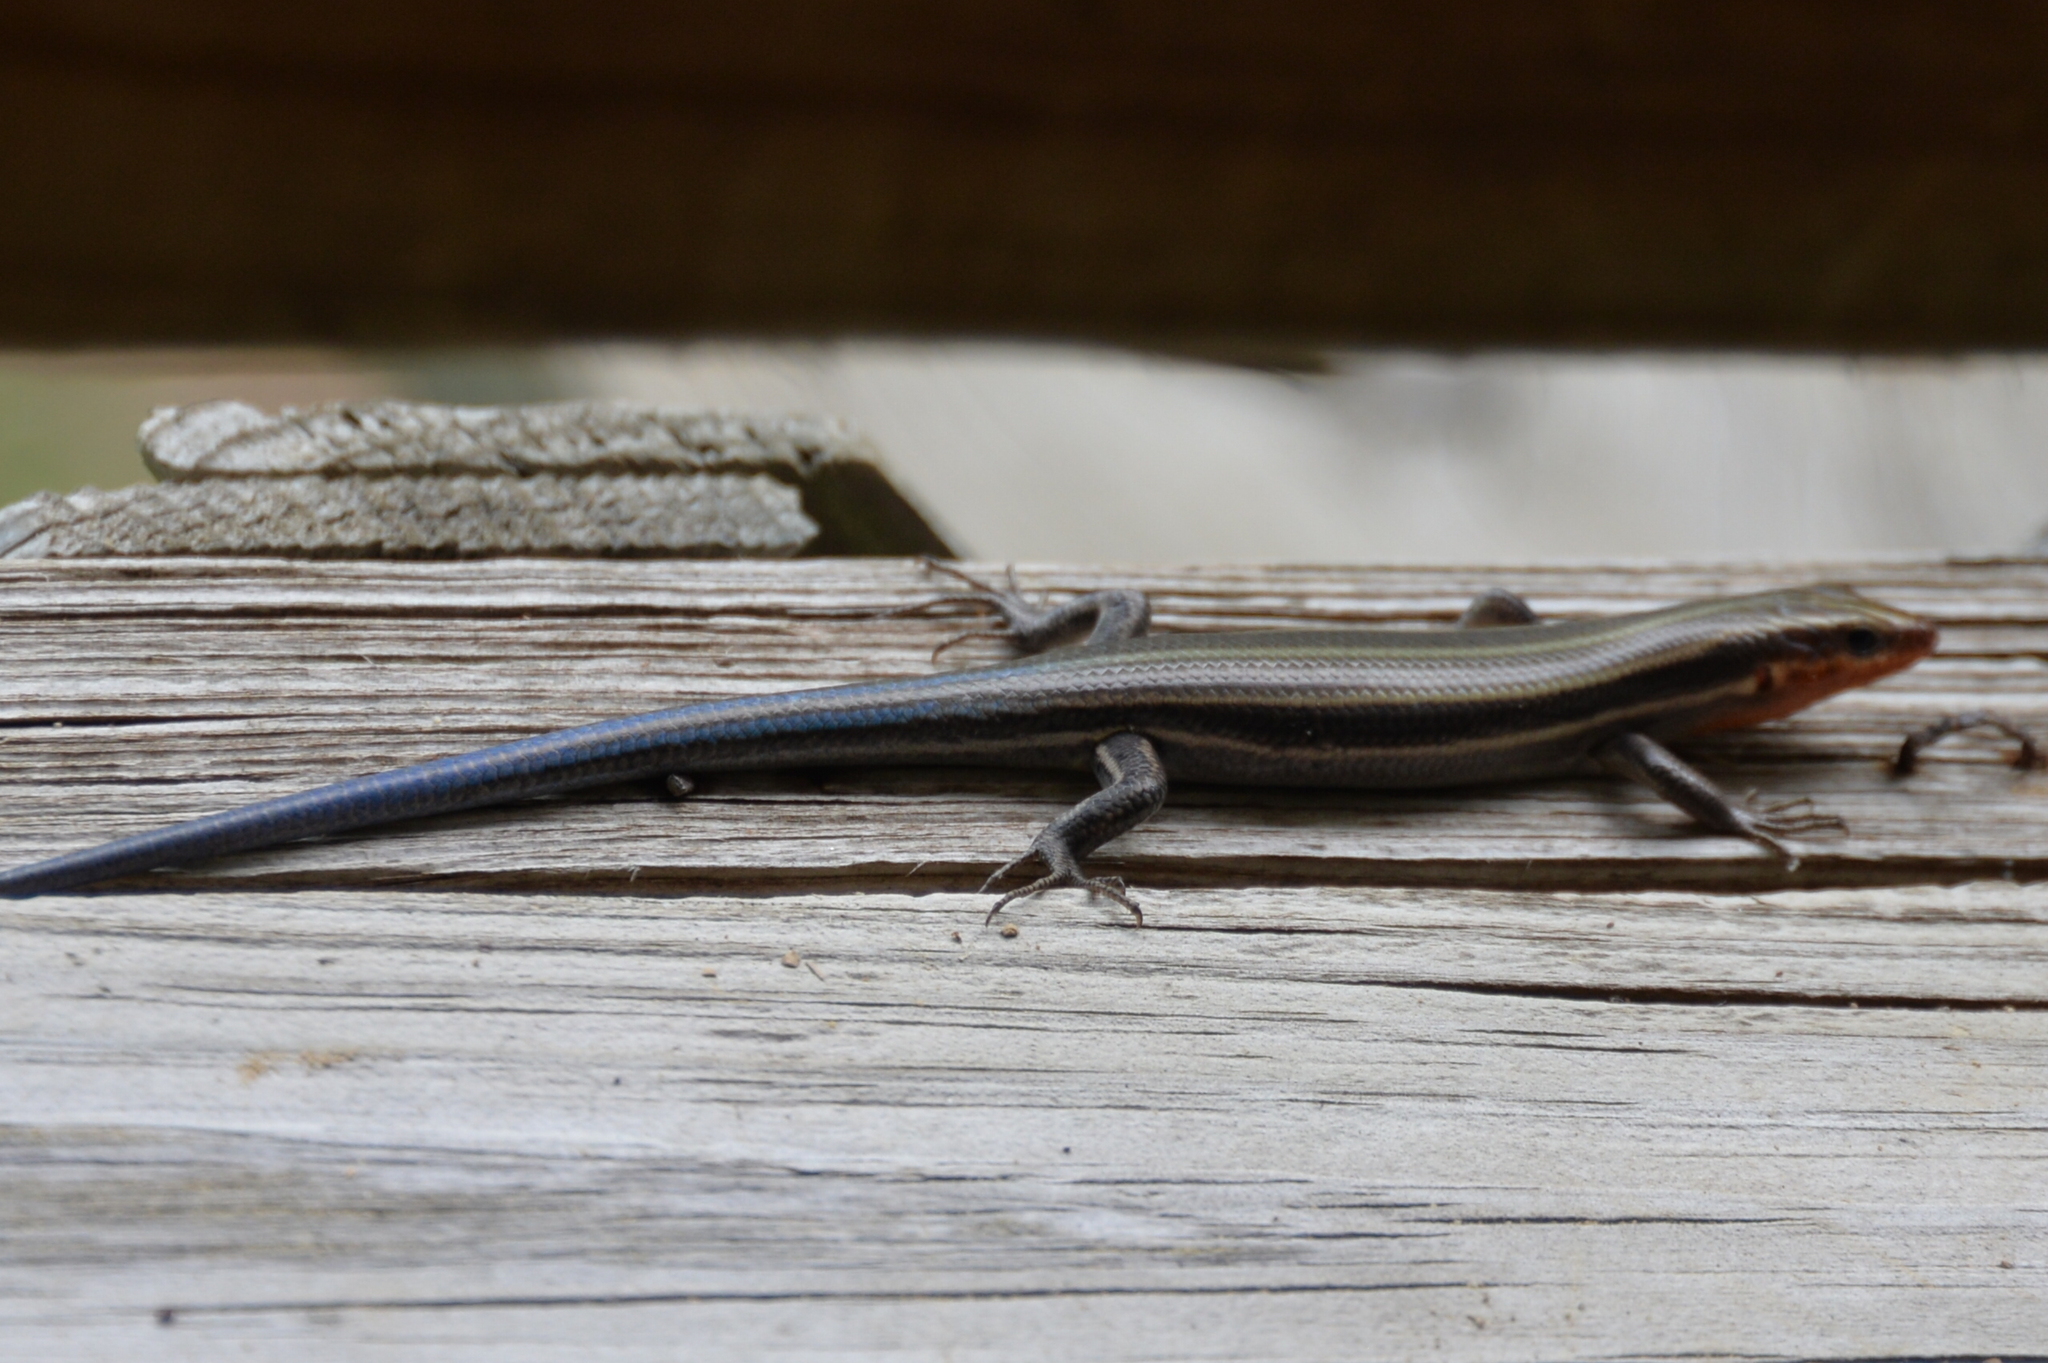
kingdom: Animalia
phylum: Chordata
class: Squamata
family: Scincidae
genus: Plestiodon
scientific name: Plestiodon fasciatus
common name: Five-lined skink
